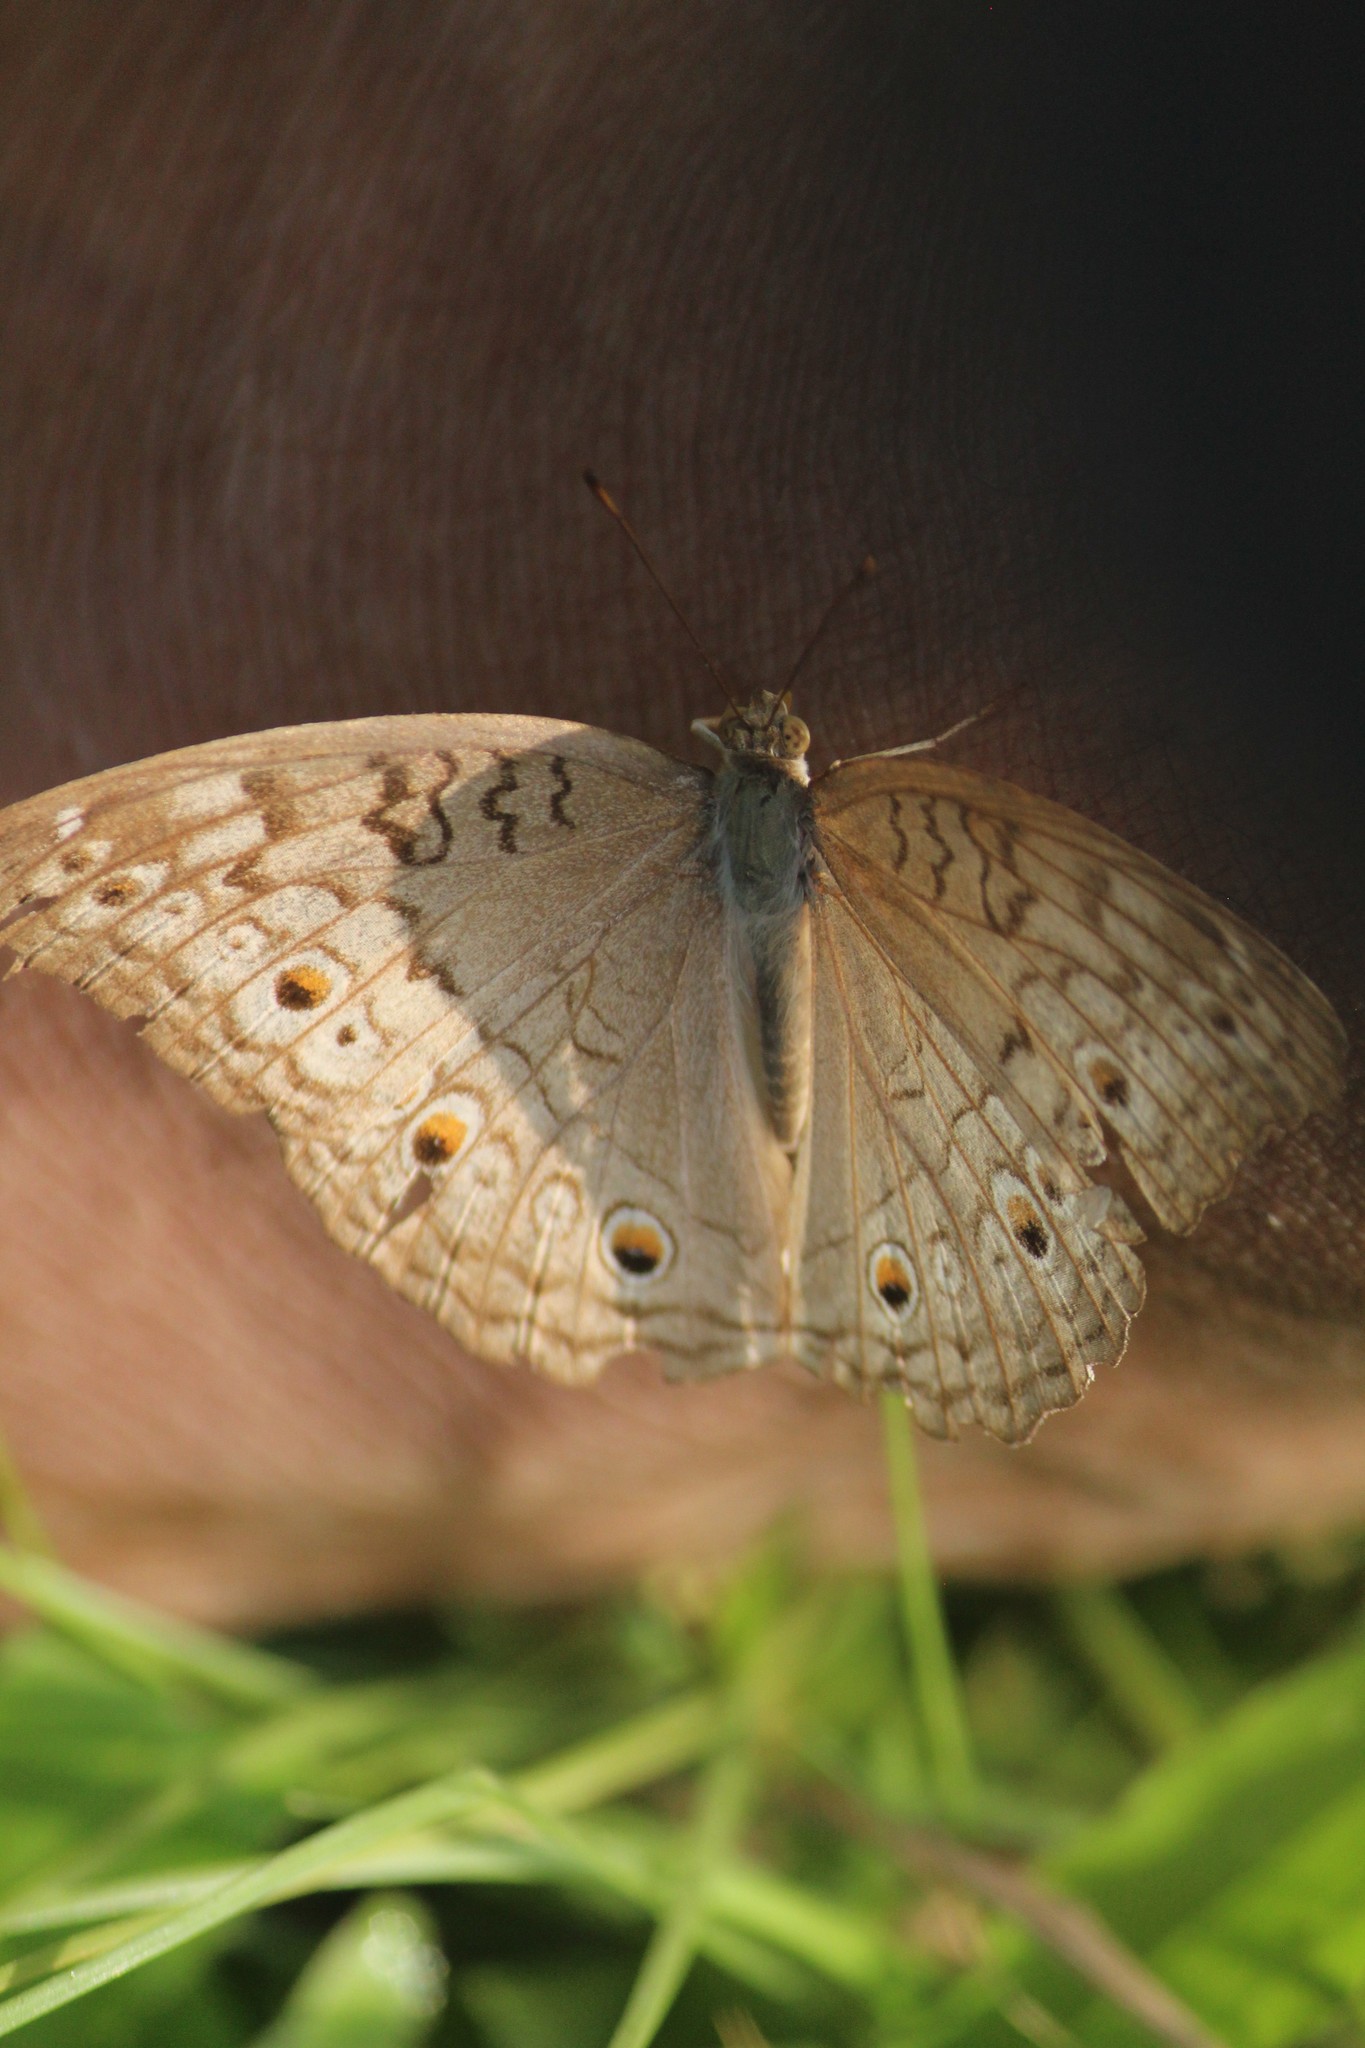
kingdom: Animalia
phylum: Arthropoda
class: Insecta
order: Lepidoptera
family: Nymphalidae
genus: Junonia
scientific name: Junonia atlites
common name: Grey pansy
